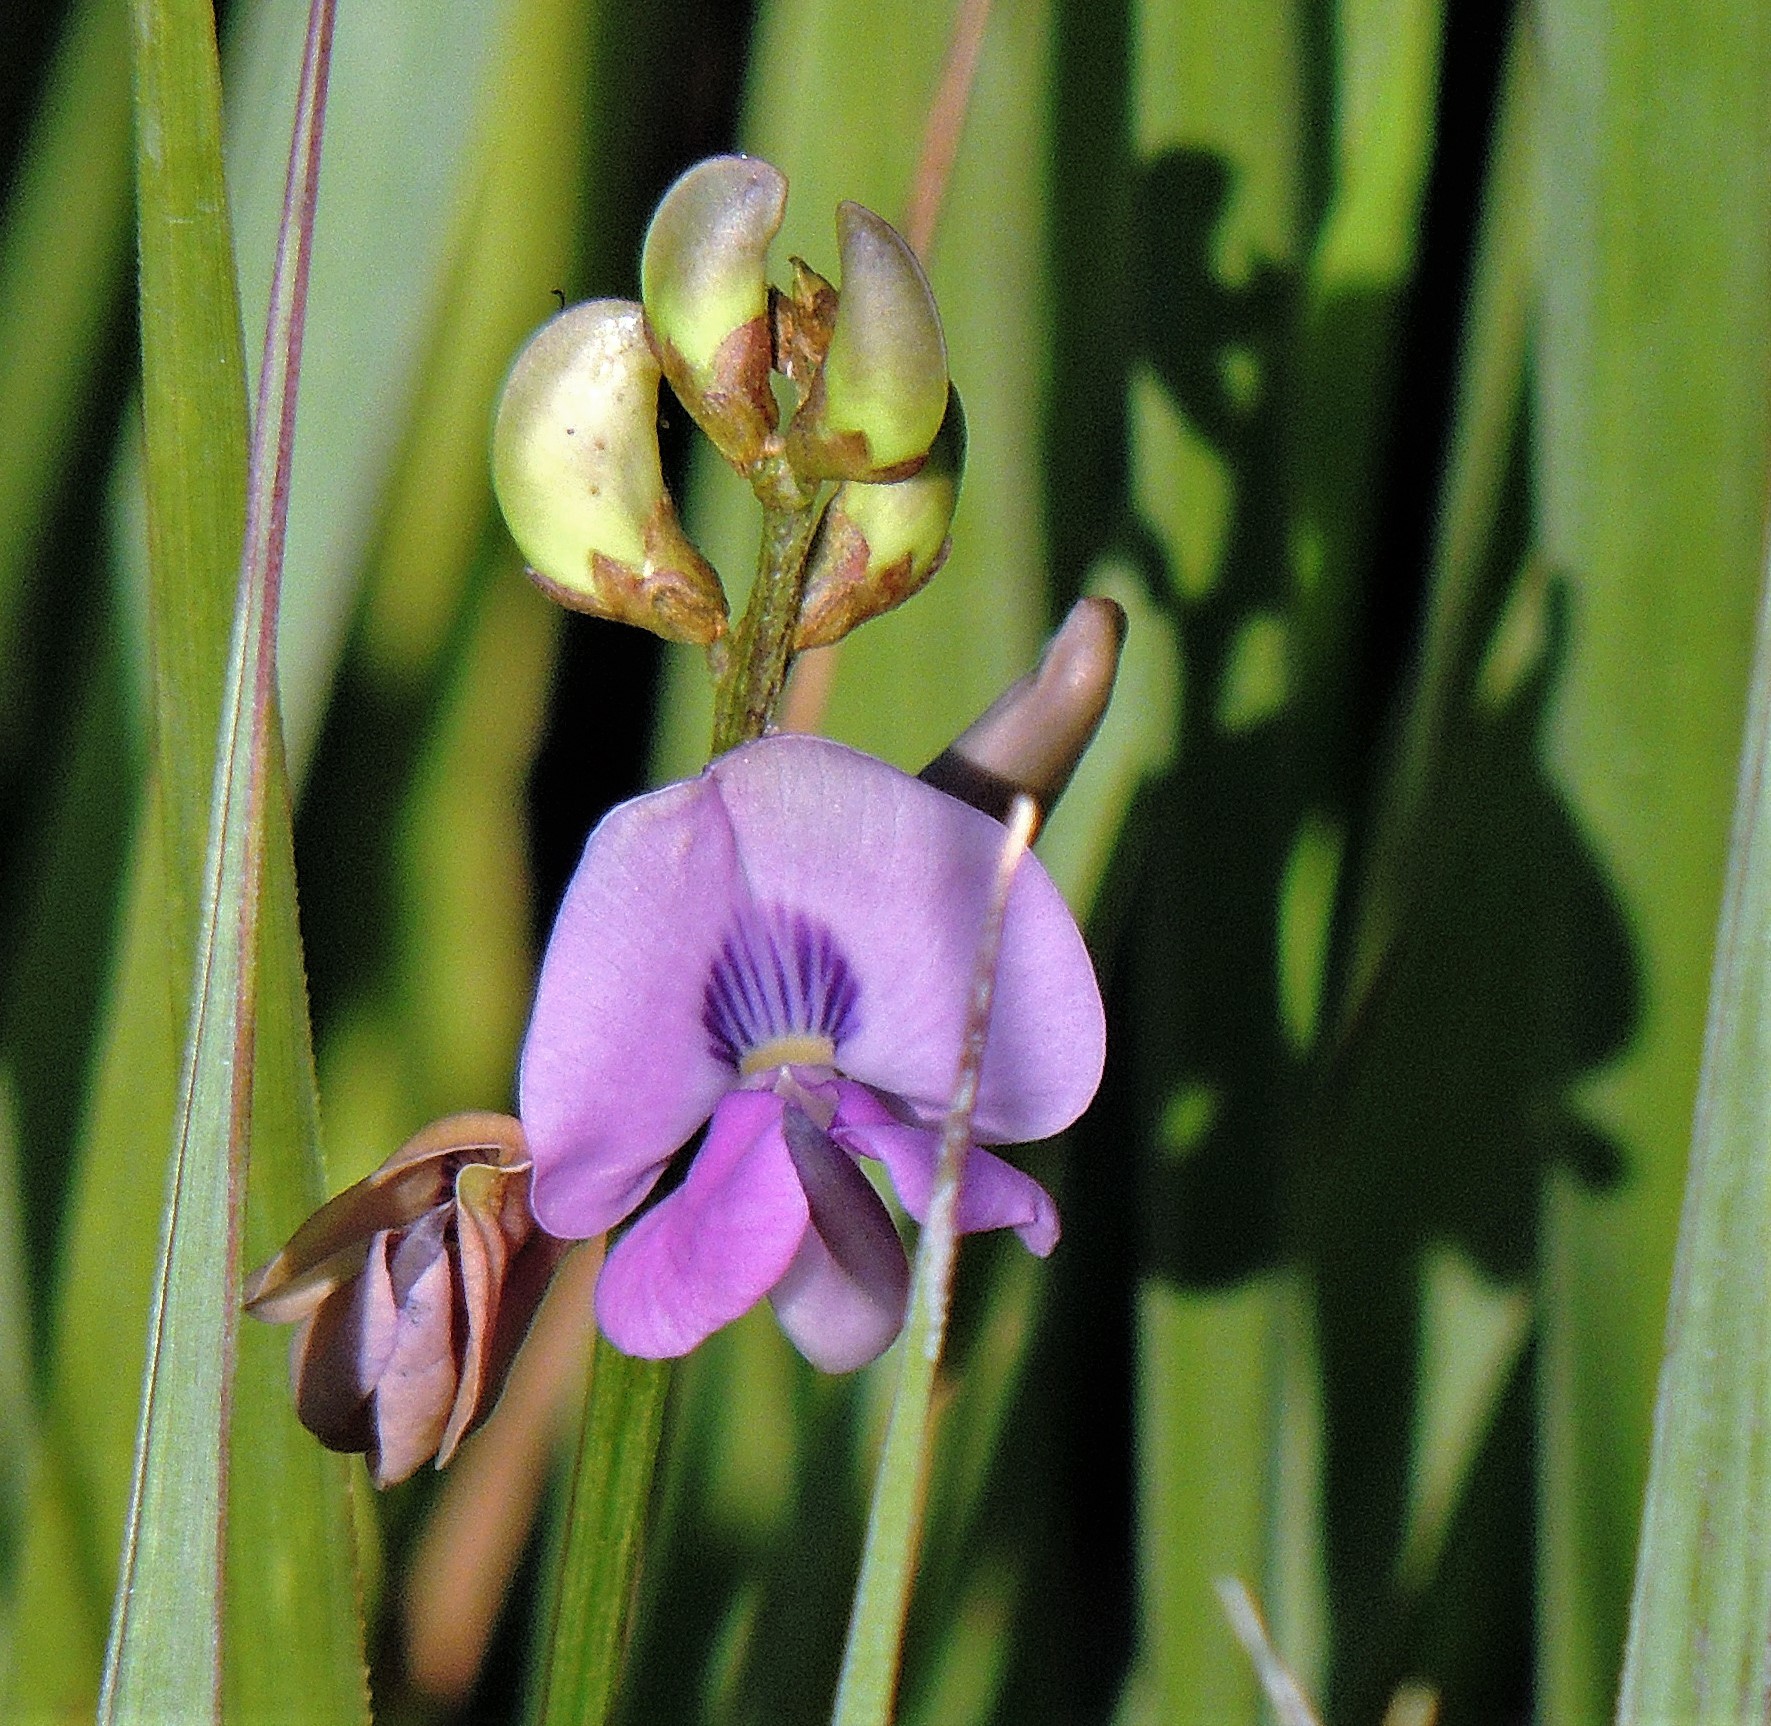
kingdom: Plantae
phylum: Tracheophyta
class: Magnoliopsida
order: Fabales
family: Fabaceae
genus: Dolichopsis
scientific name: Dolichopsis paraguariensis
